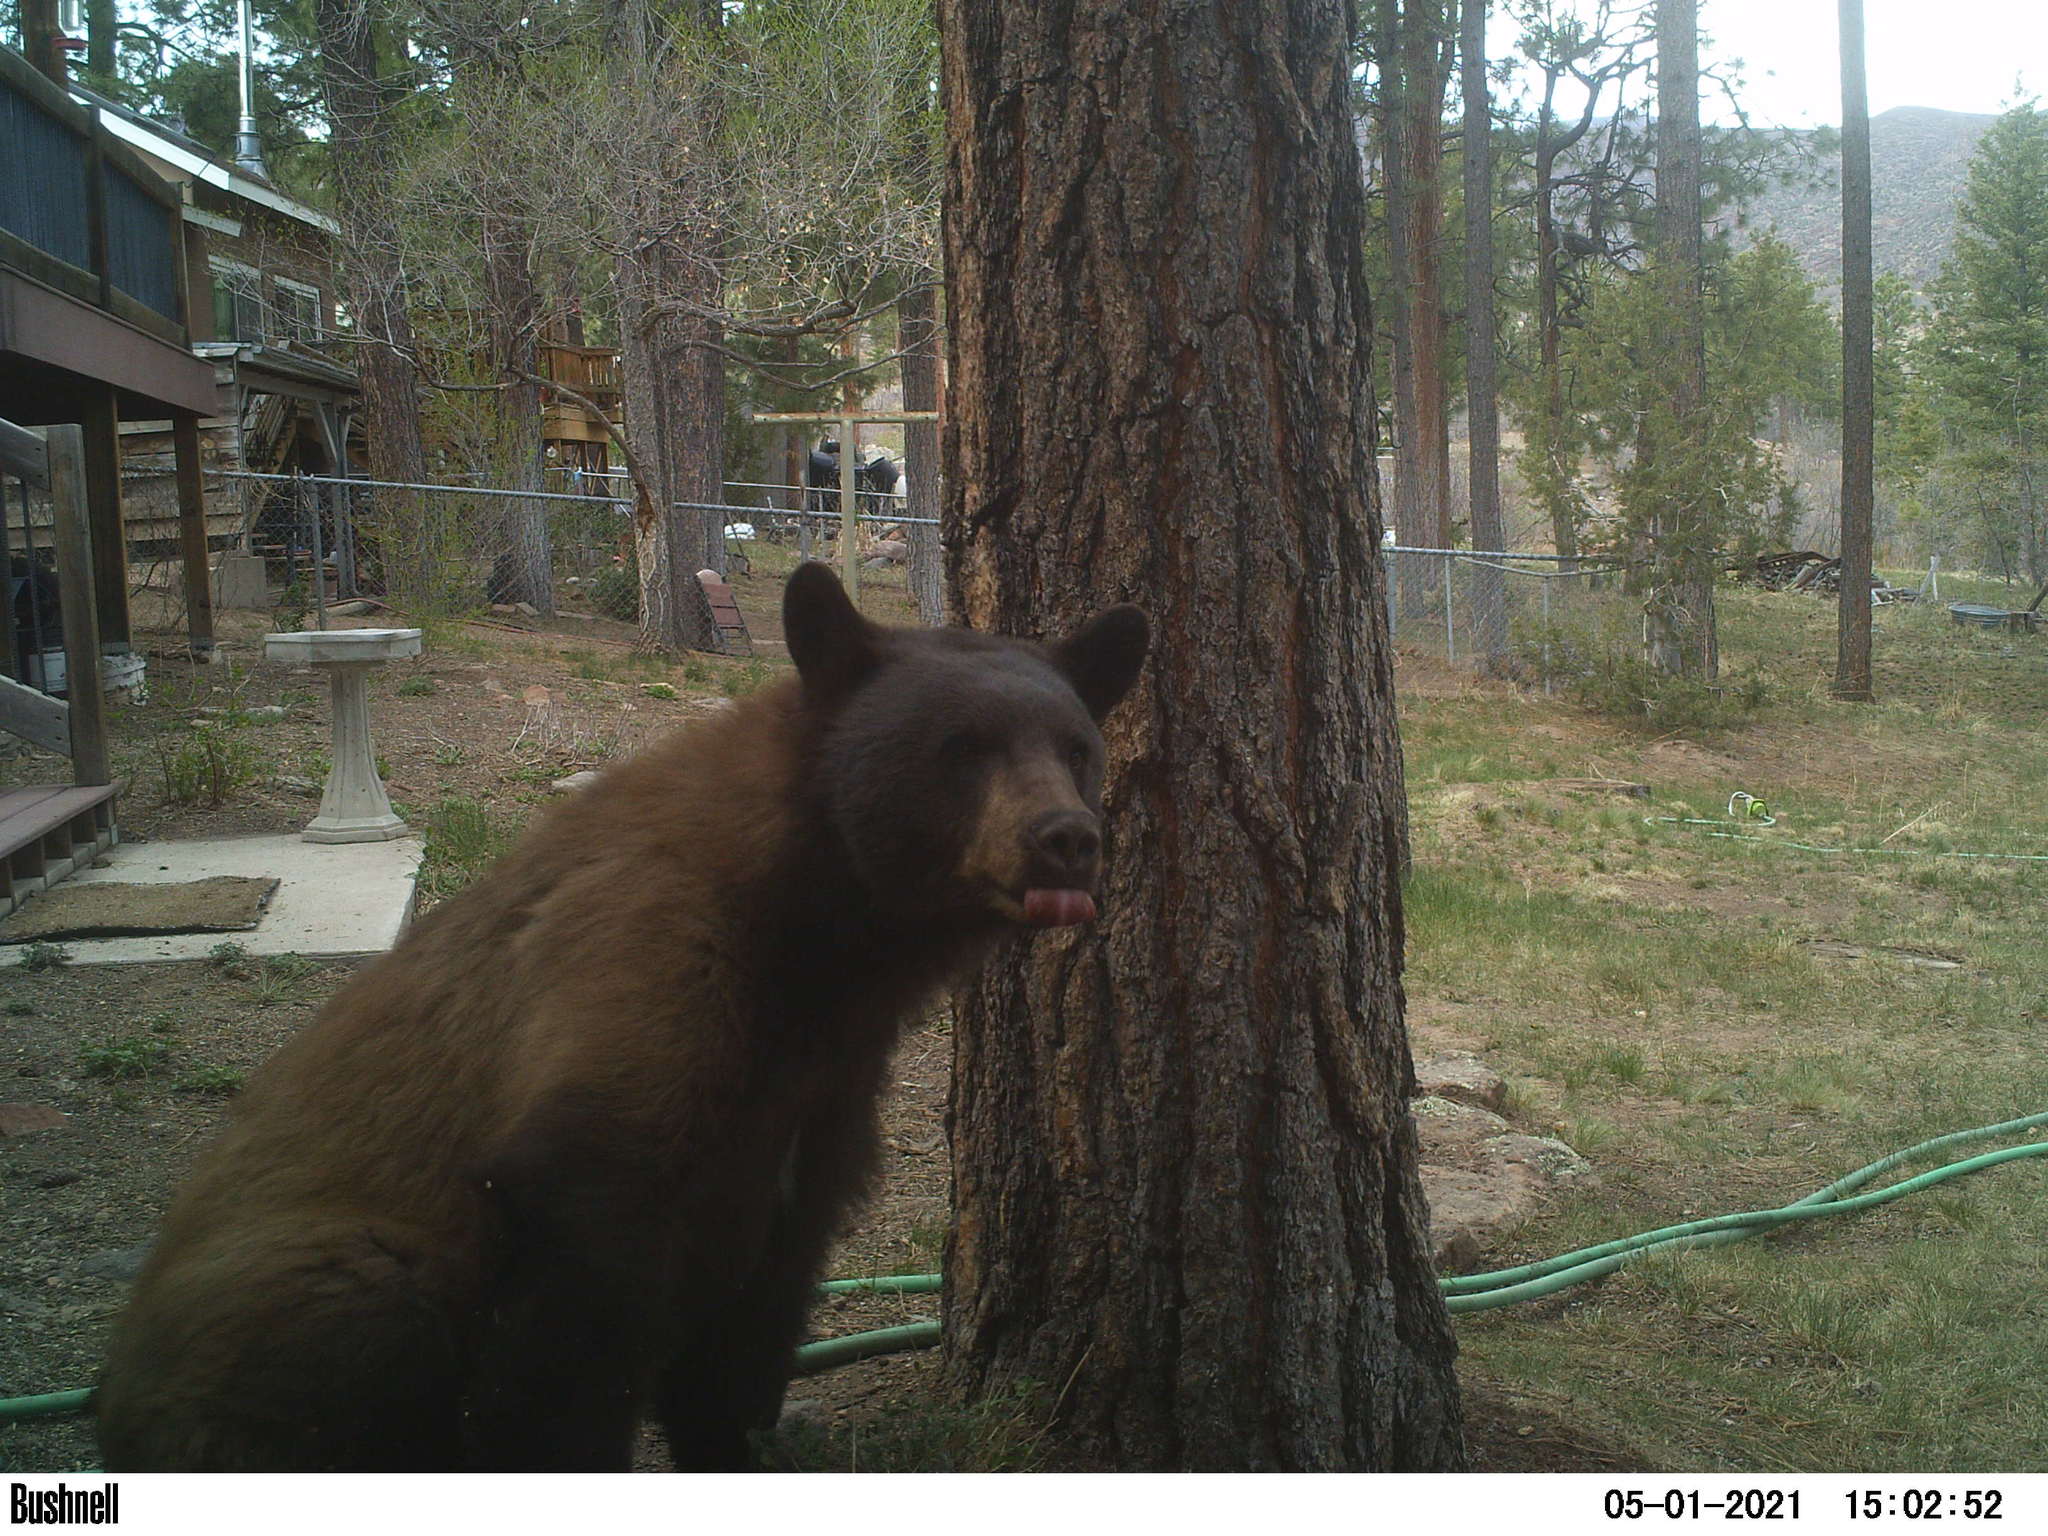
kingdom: Animalia
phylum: Chordata
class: Mammalia
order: Carnivora
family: Ursidae
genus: Ursus
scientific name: Ursus americanus
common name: American black bear
